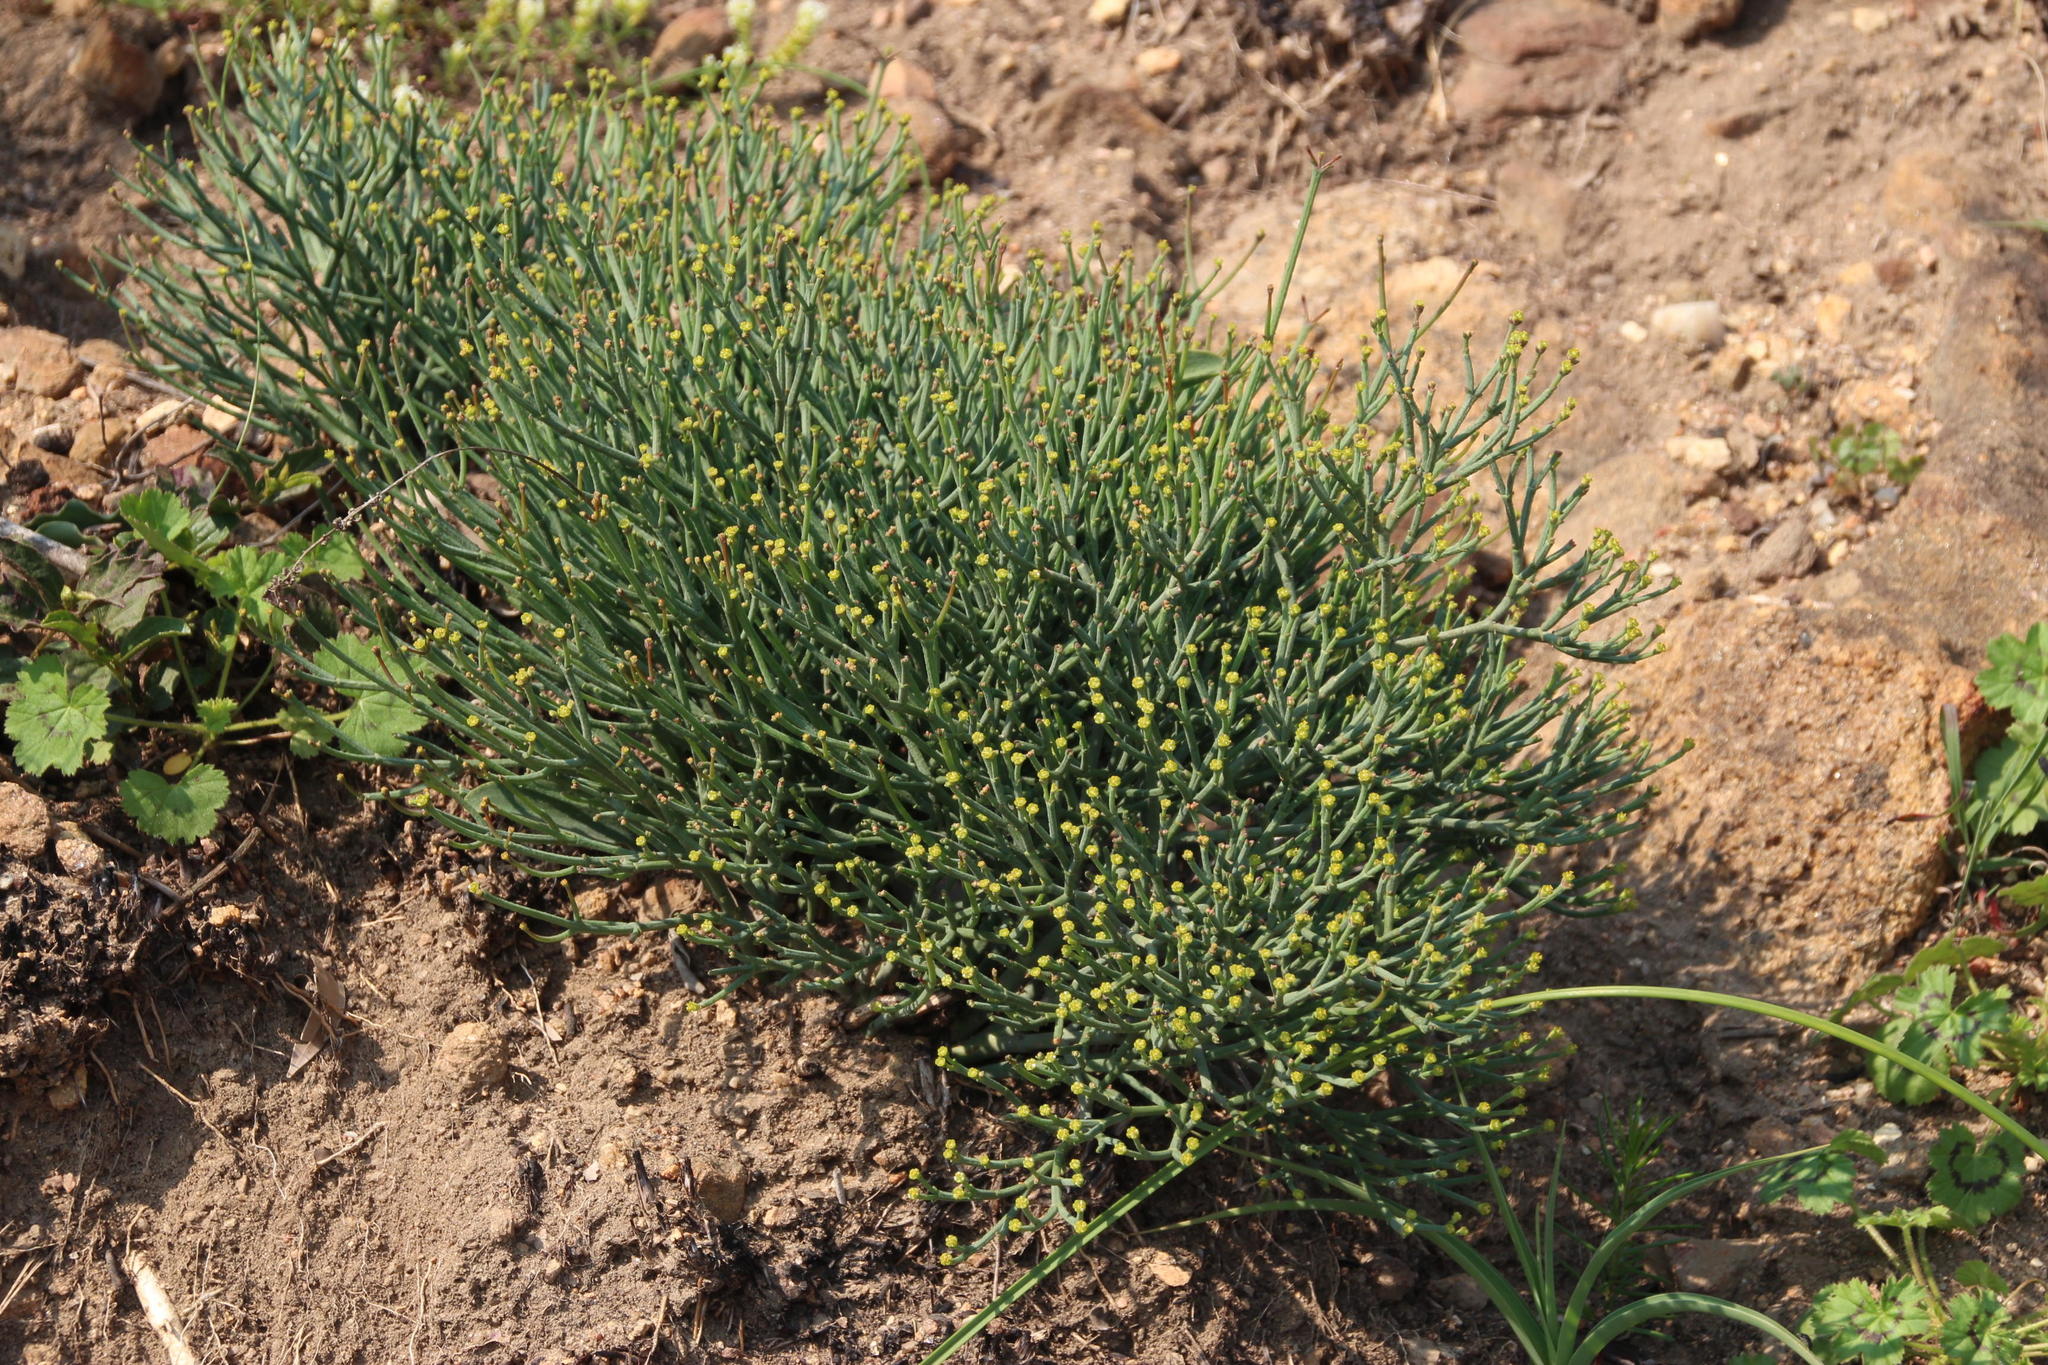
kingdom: Plantae
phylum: Tracheophyta
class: Magnoliopsida
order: Malpighiales
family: Euphorbiaceae
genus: Euphorbia
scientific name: Euphorbia tenax
